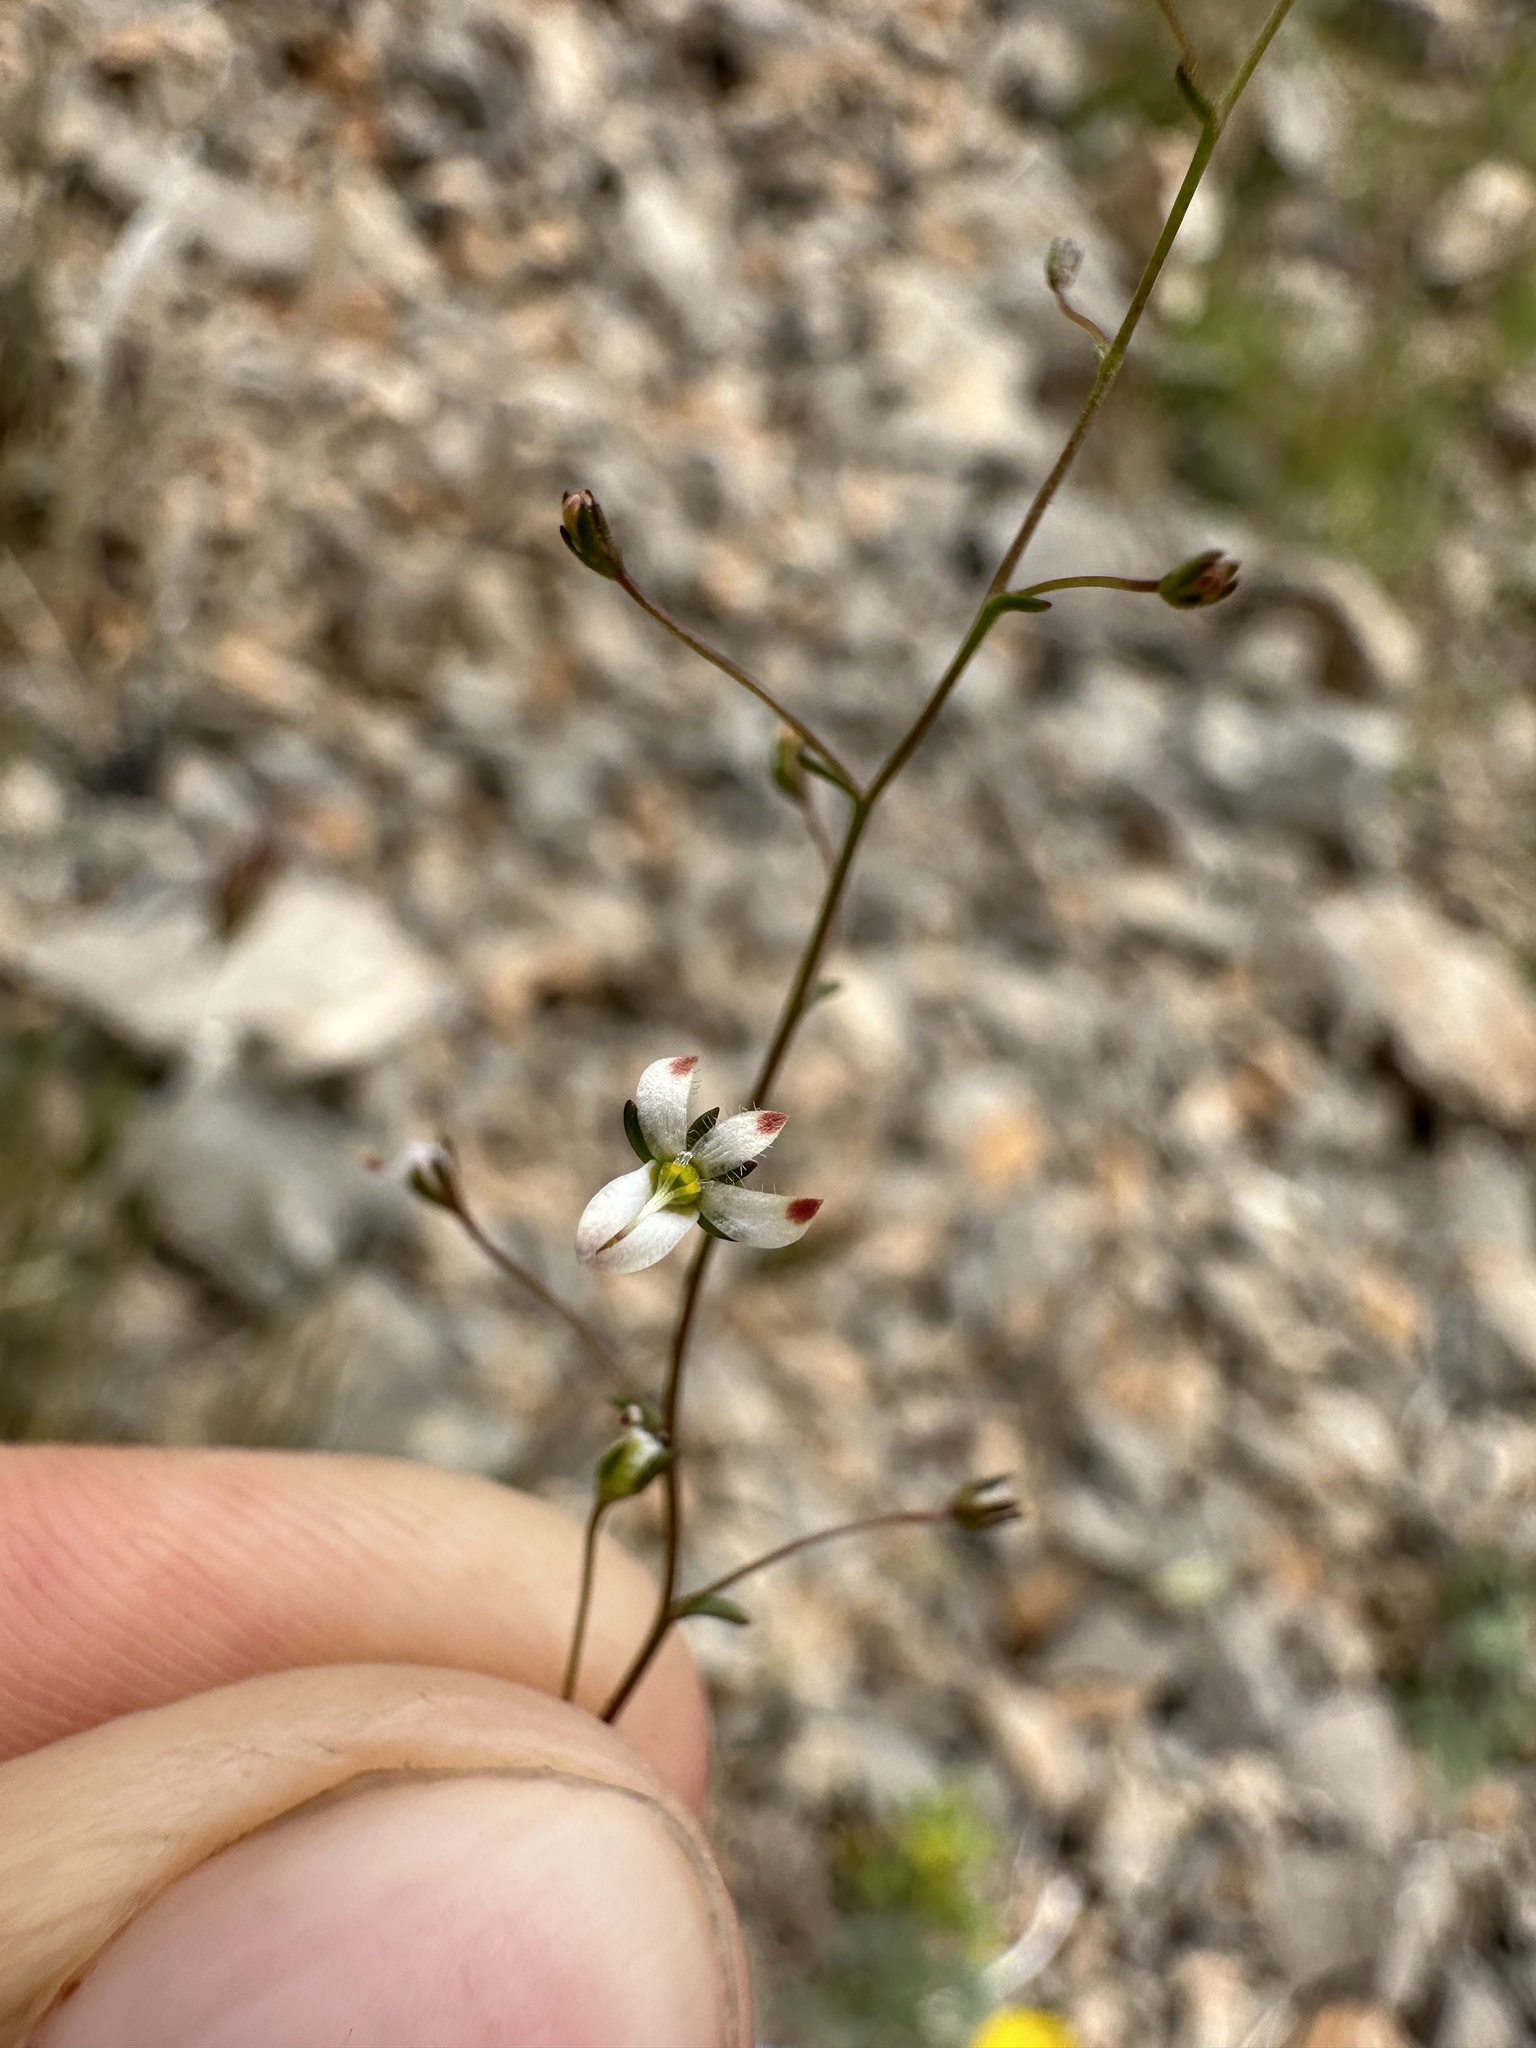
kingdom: Plantae
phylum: Tracheophyta
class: Magnoliopsida
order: Asterales
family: Campanulaceae
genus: Nemacladus
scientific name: Nemacladus orientalis
